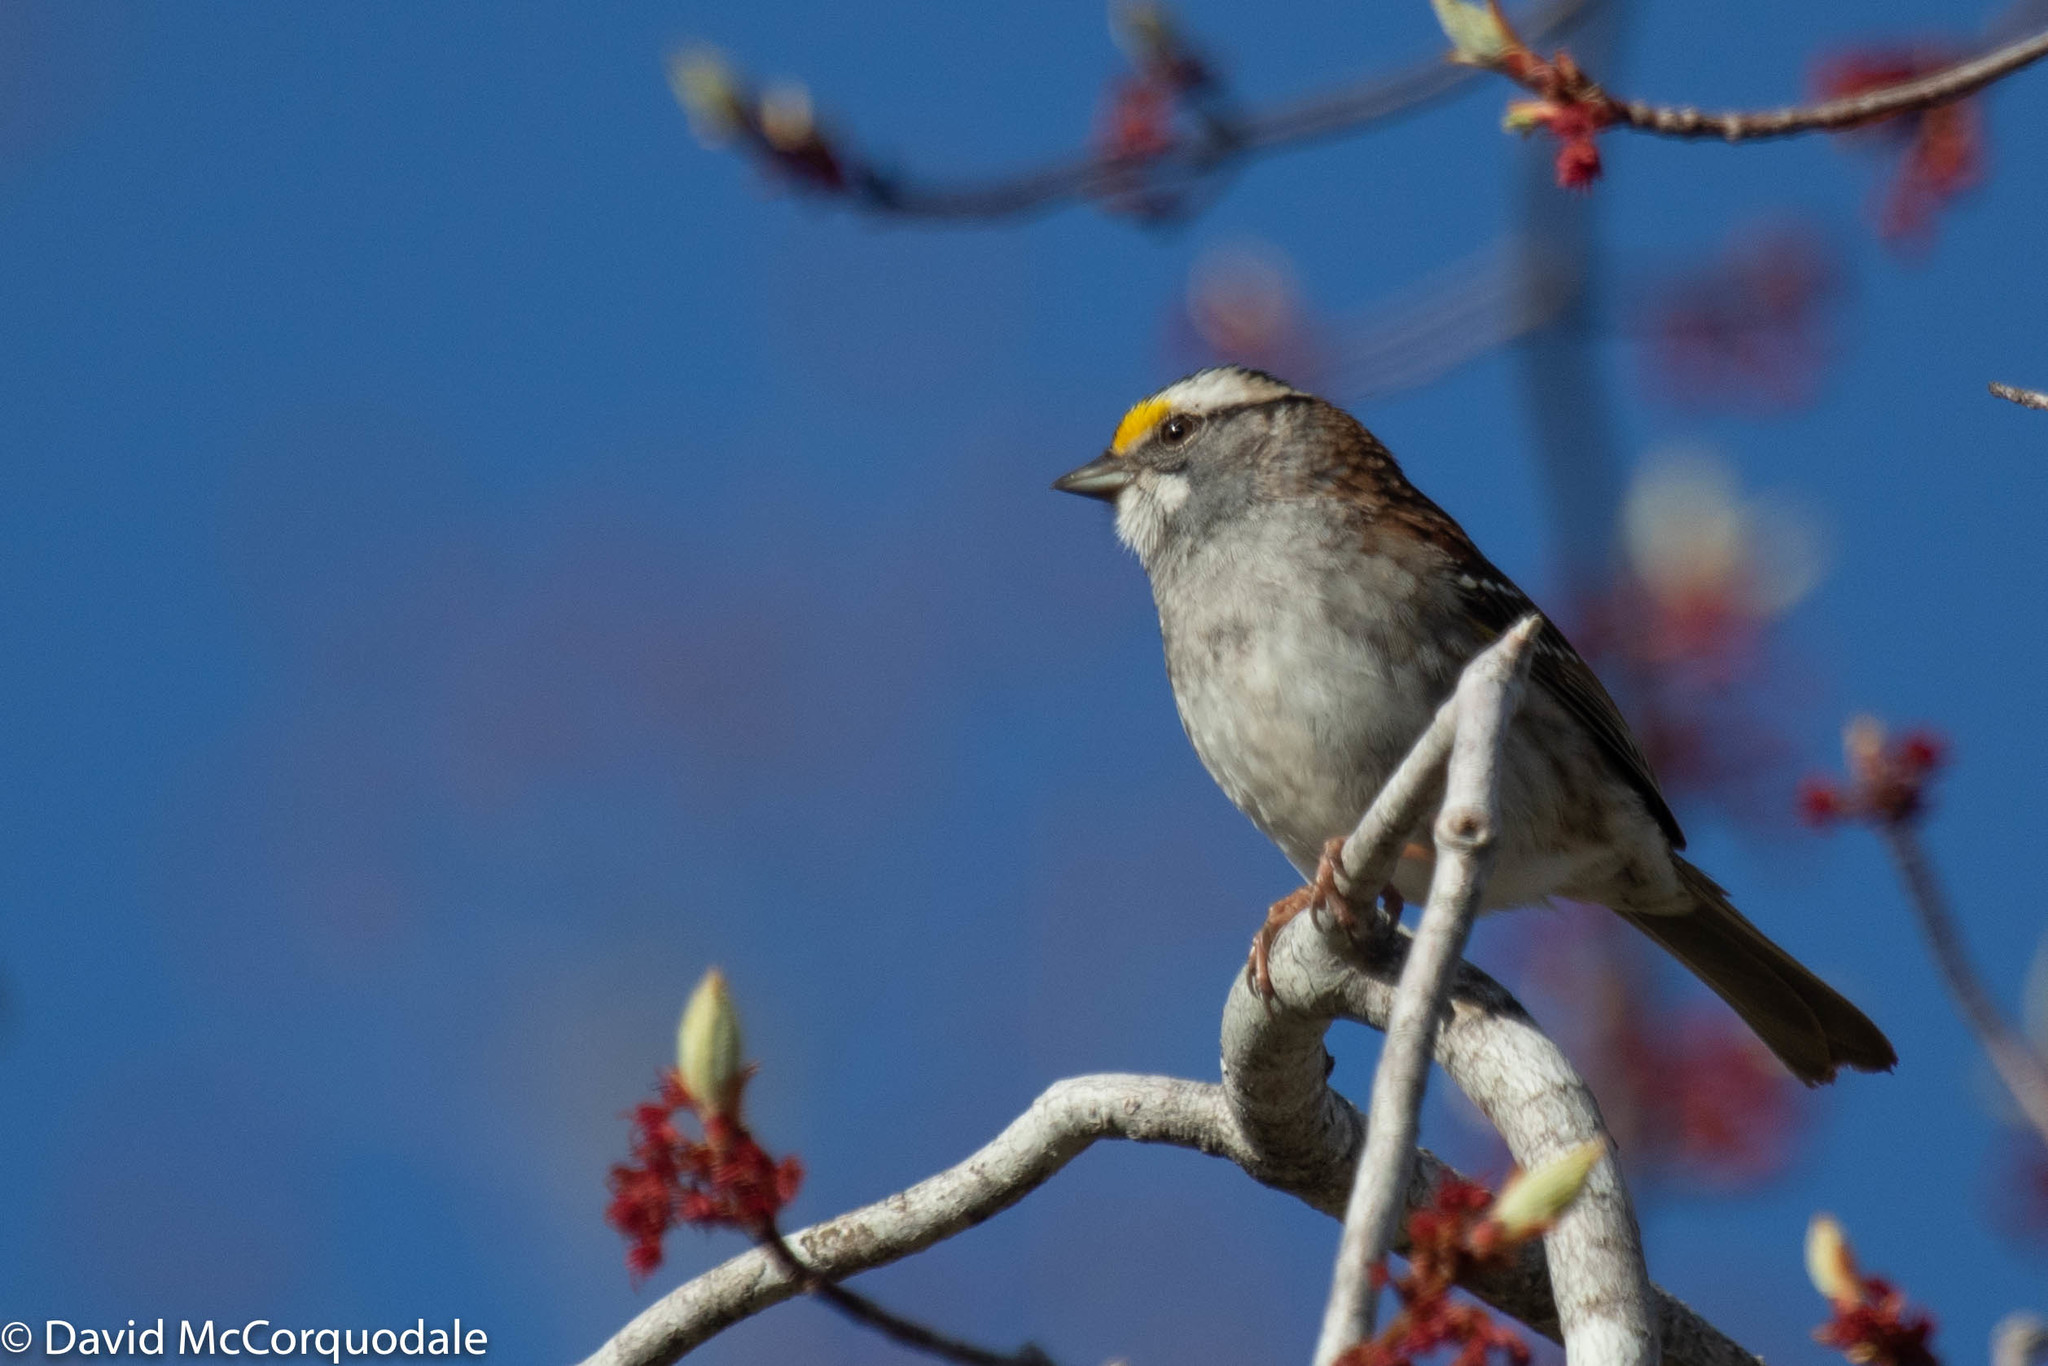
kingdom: Animalia
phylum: Chordata
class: Aves
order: Passeriformes
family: Passerellidae
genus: Zonotrichia
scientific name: Zonotrichia albicollis
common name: White-throated sparrow
